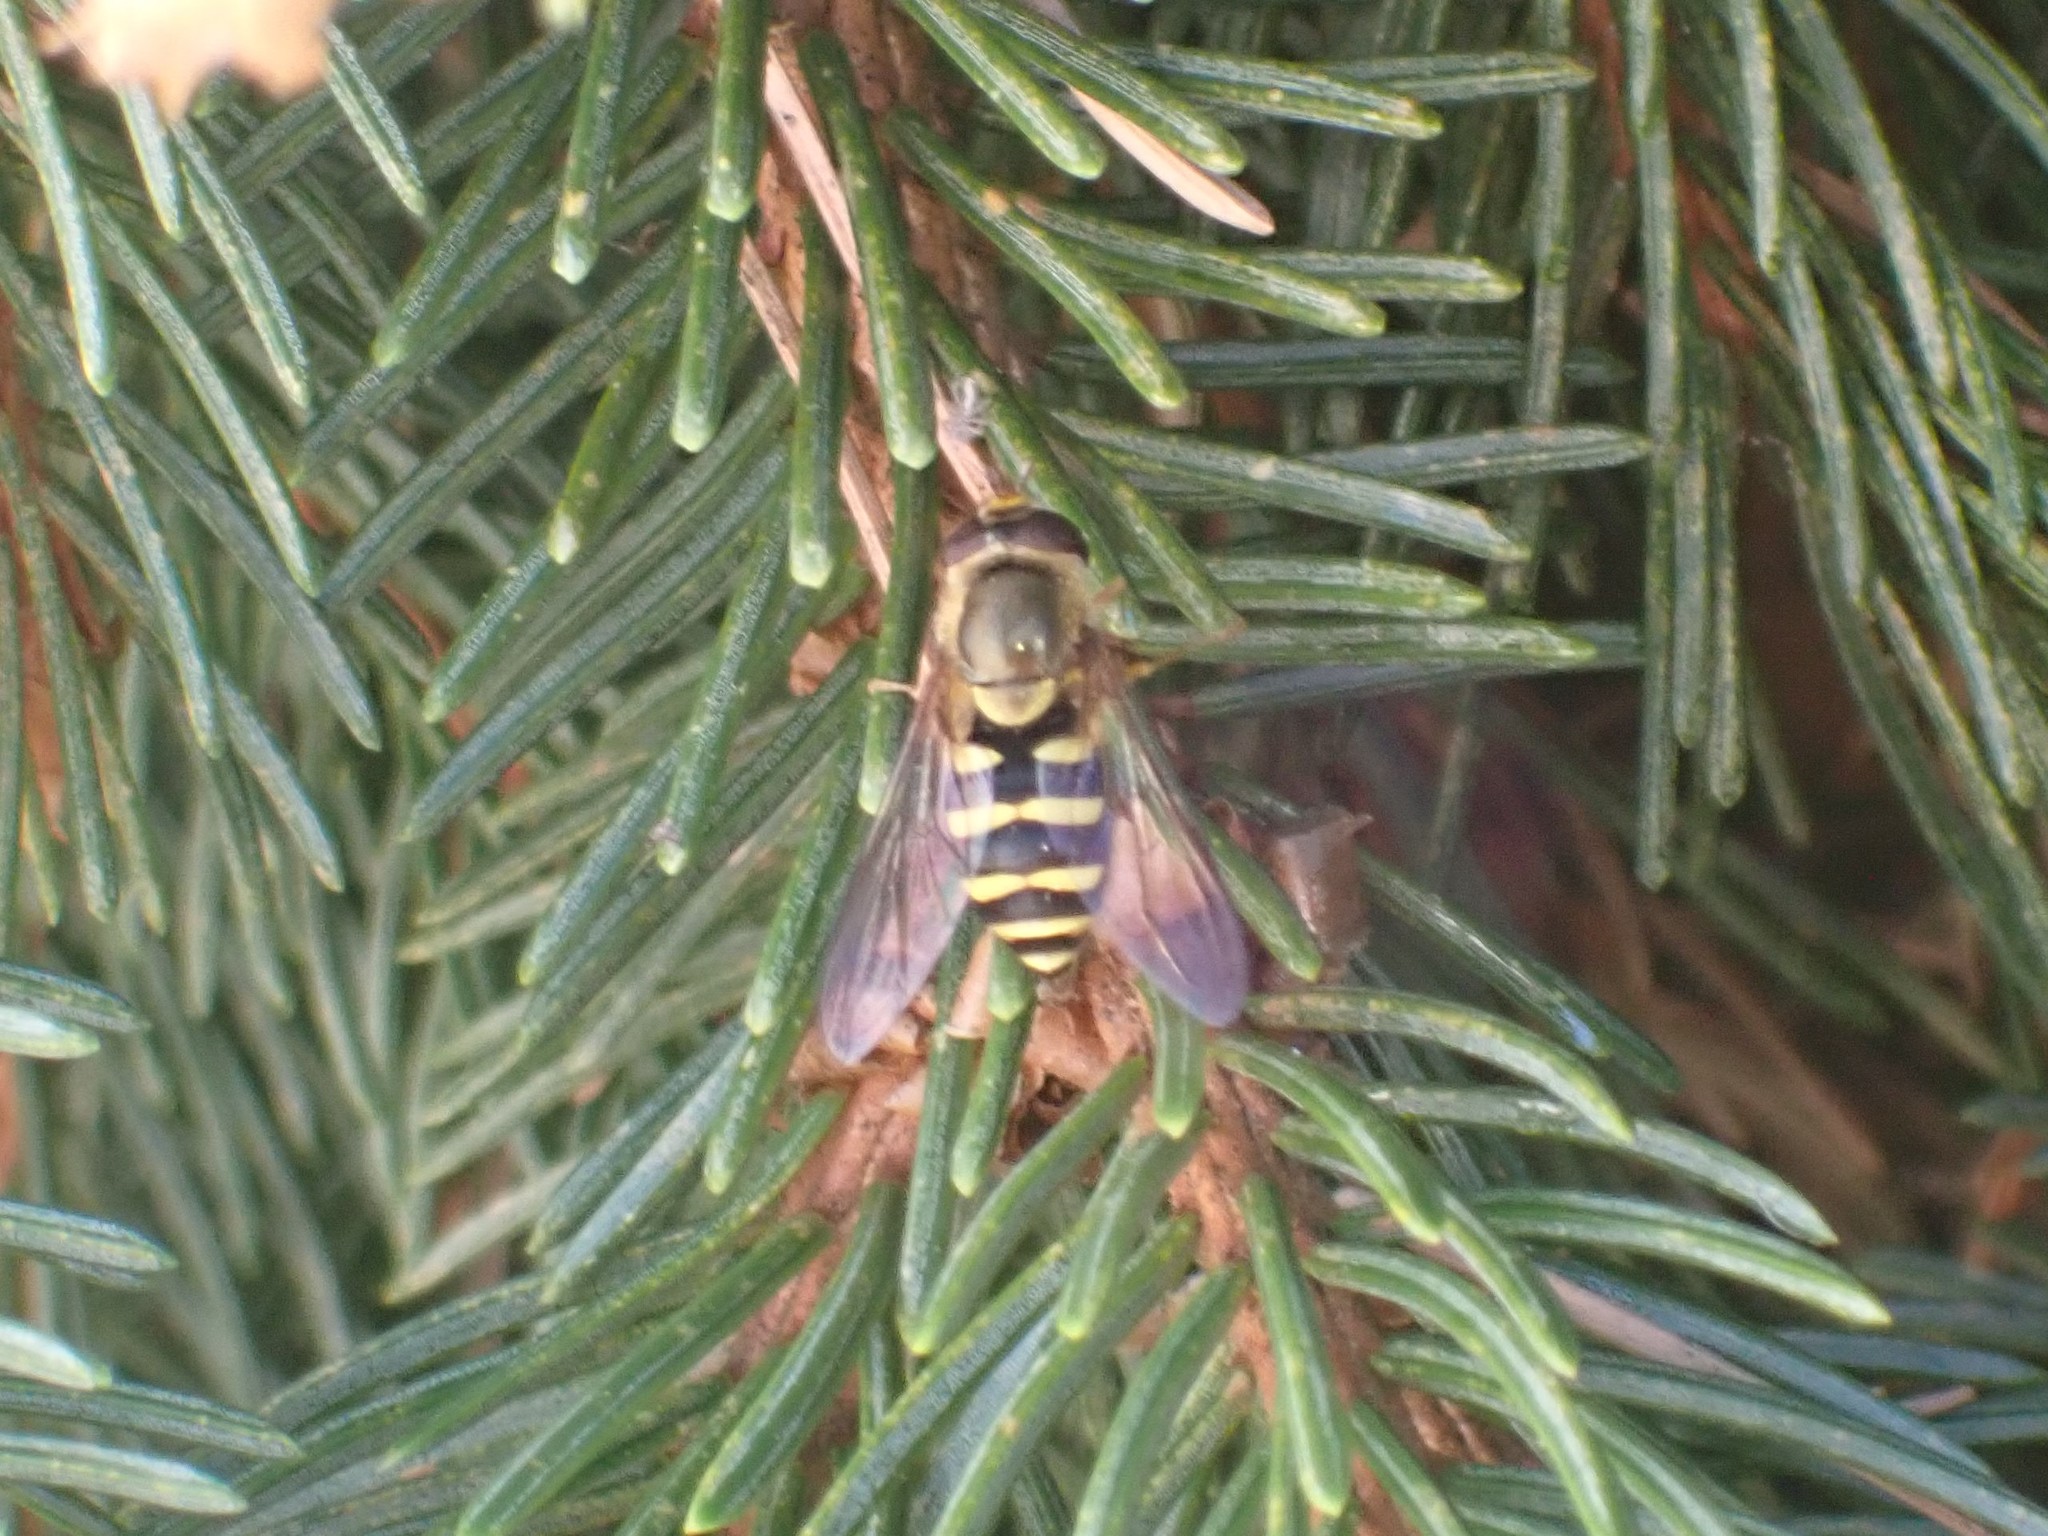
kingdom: Animalia
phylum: Arthropoda
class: Insecta
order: Diptera
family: Syrphidae
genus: Syrphus
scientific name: Syrphus opinator
